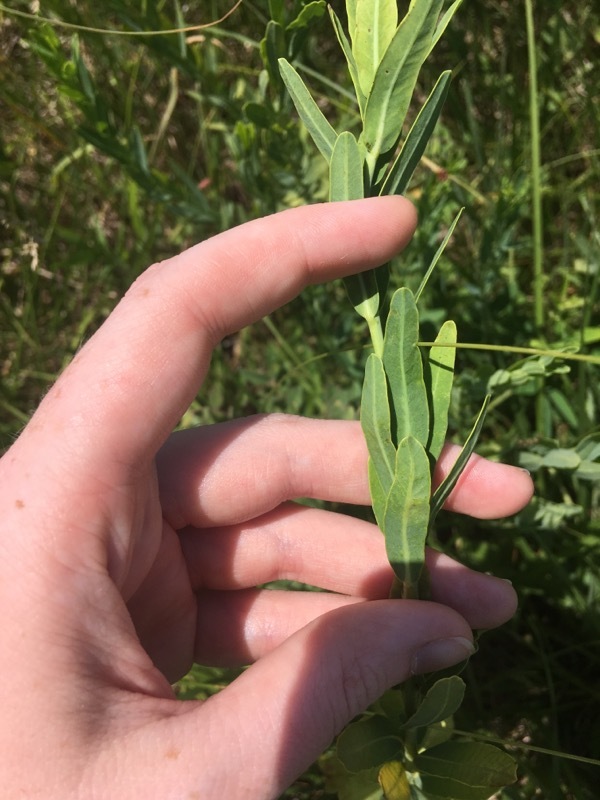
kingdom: Plantae
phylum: Tracheophyta
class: Magnoliopsida
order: Malpighiales
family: Euphorbiaceae
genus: Euphorbia
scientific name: Euphorbia corollata
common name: Flowering spurge
